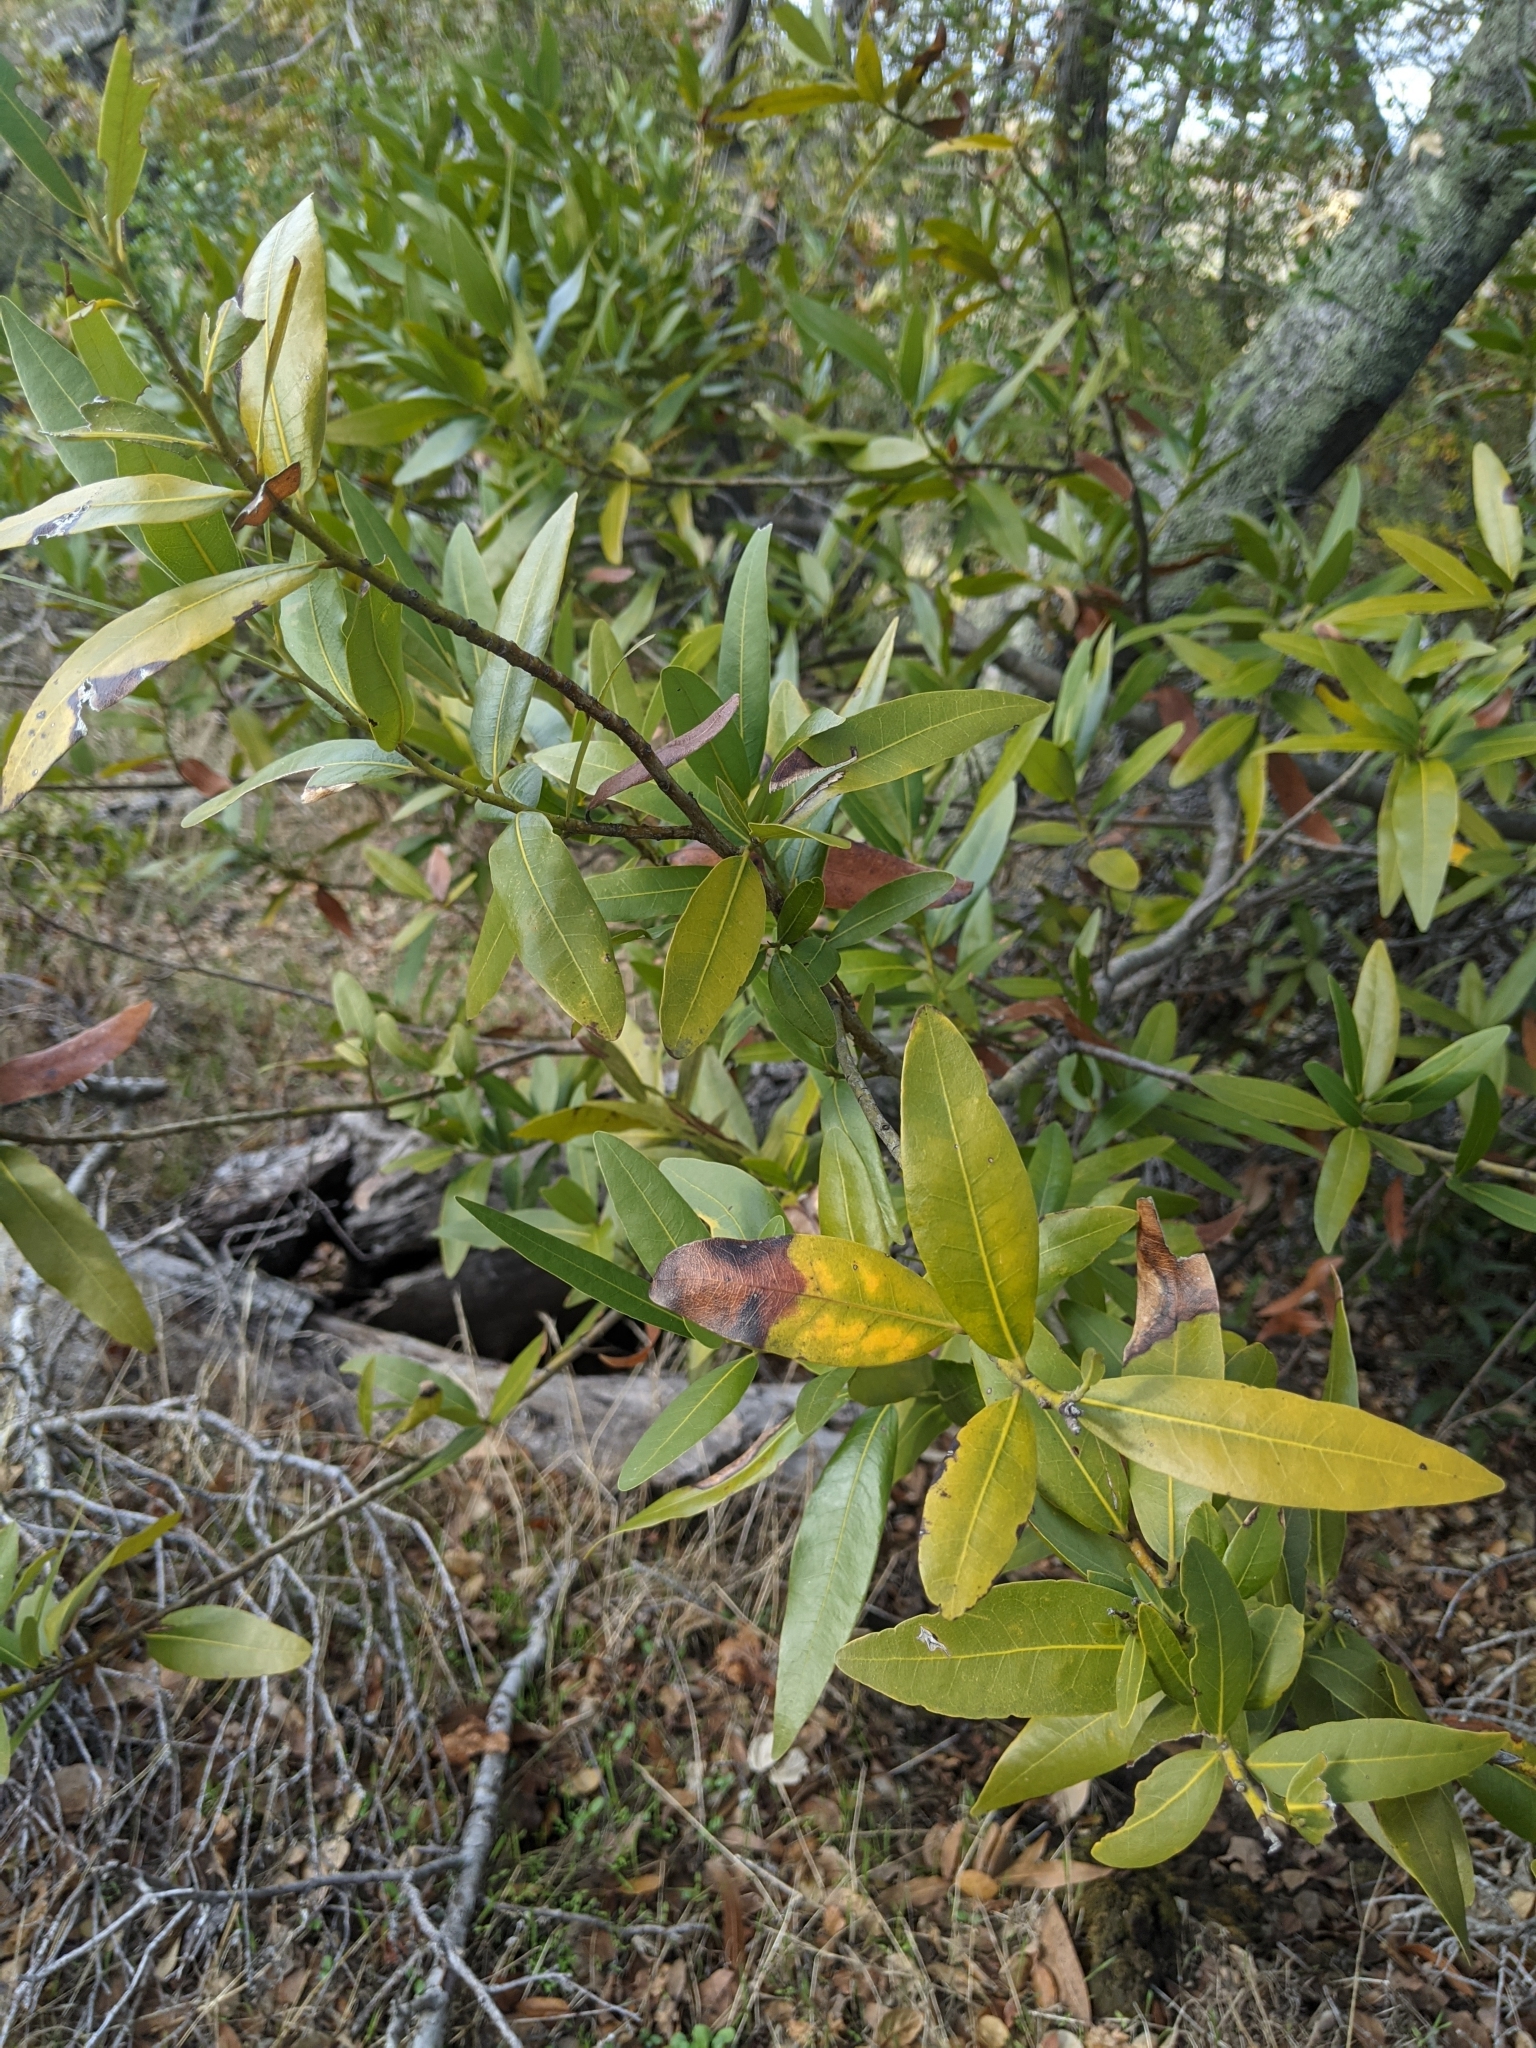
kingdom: Plantae
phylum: Tracheophyta
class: Magnoliopsida
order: Laurales
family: Lauraceae
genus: Umbellularia
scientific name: Umbellularia californica
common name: California bay
